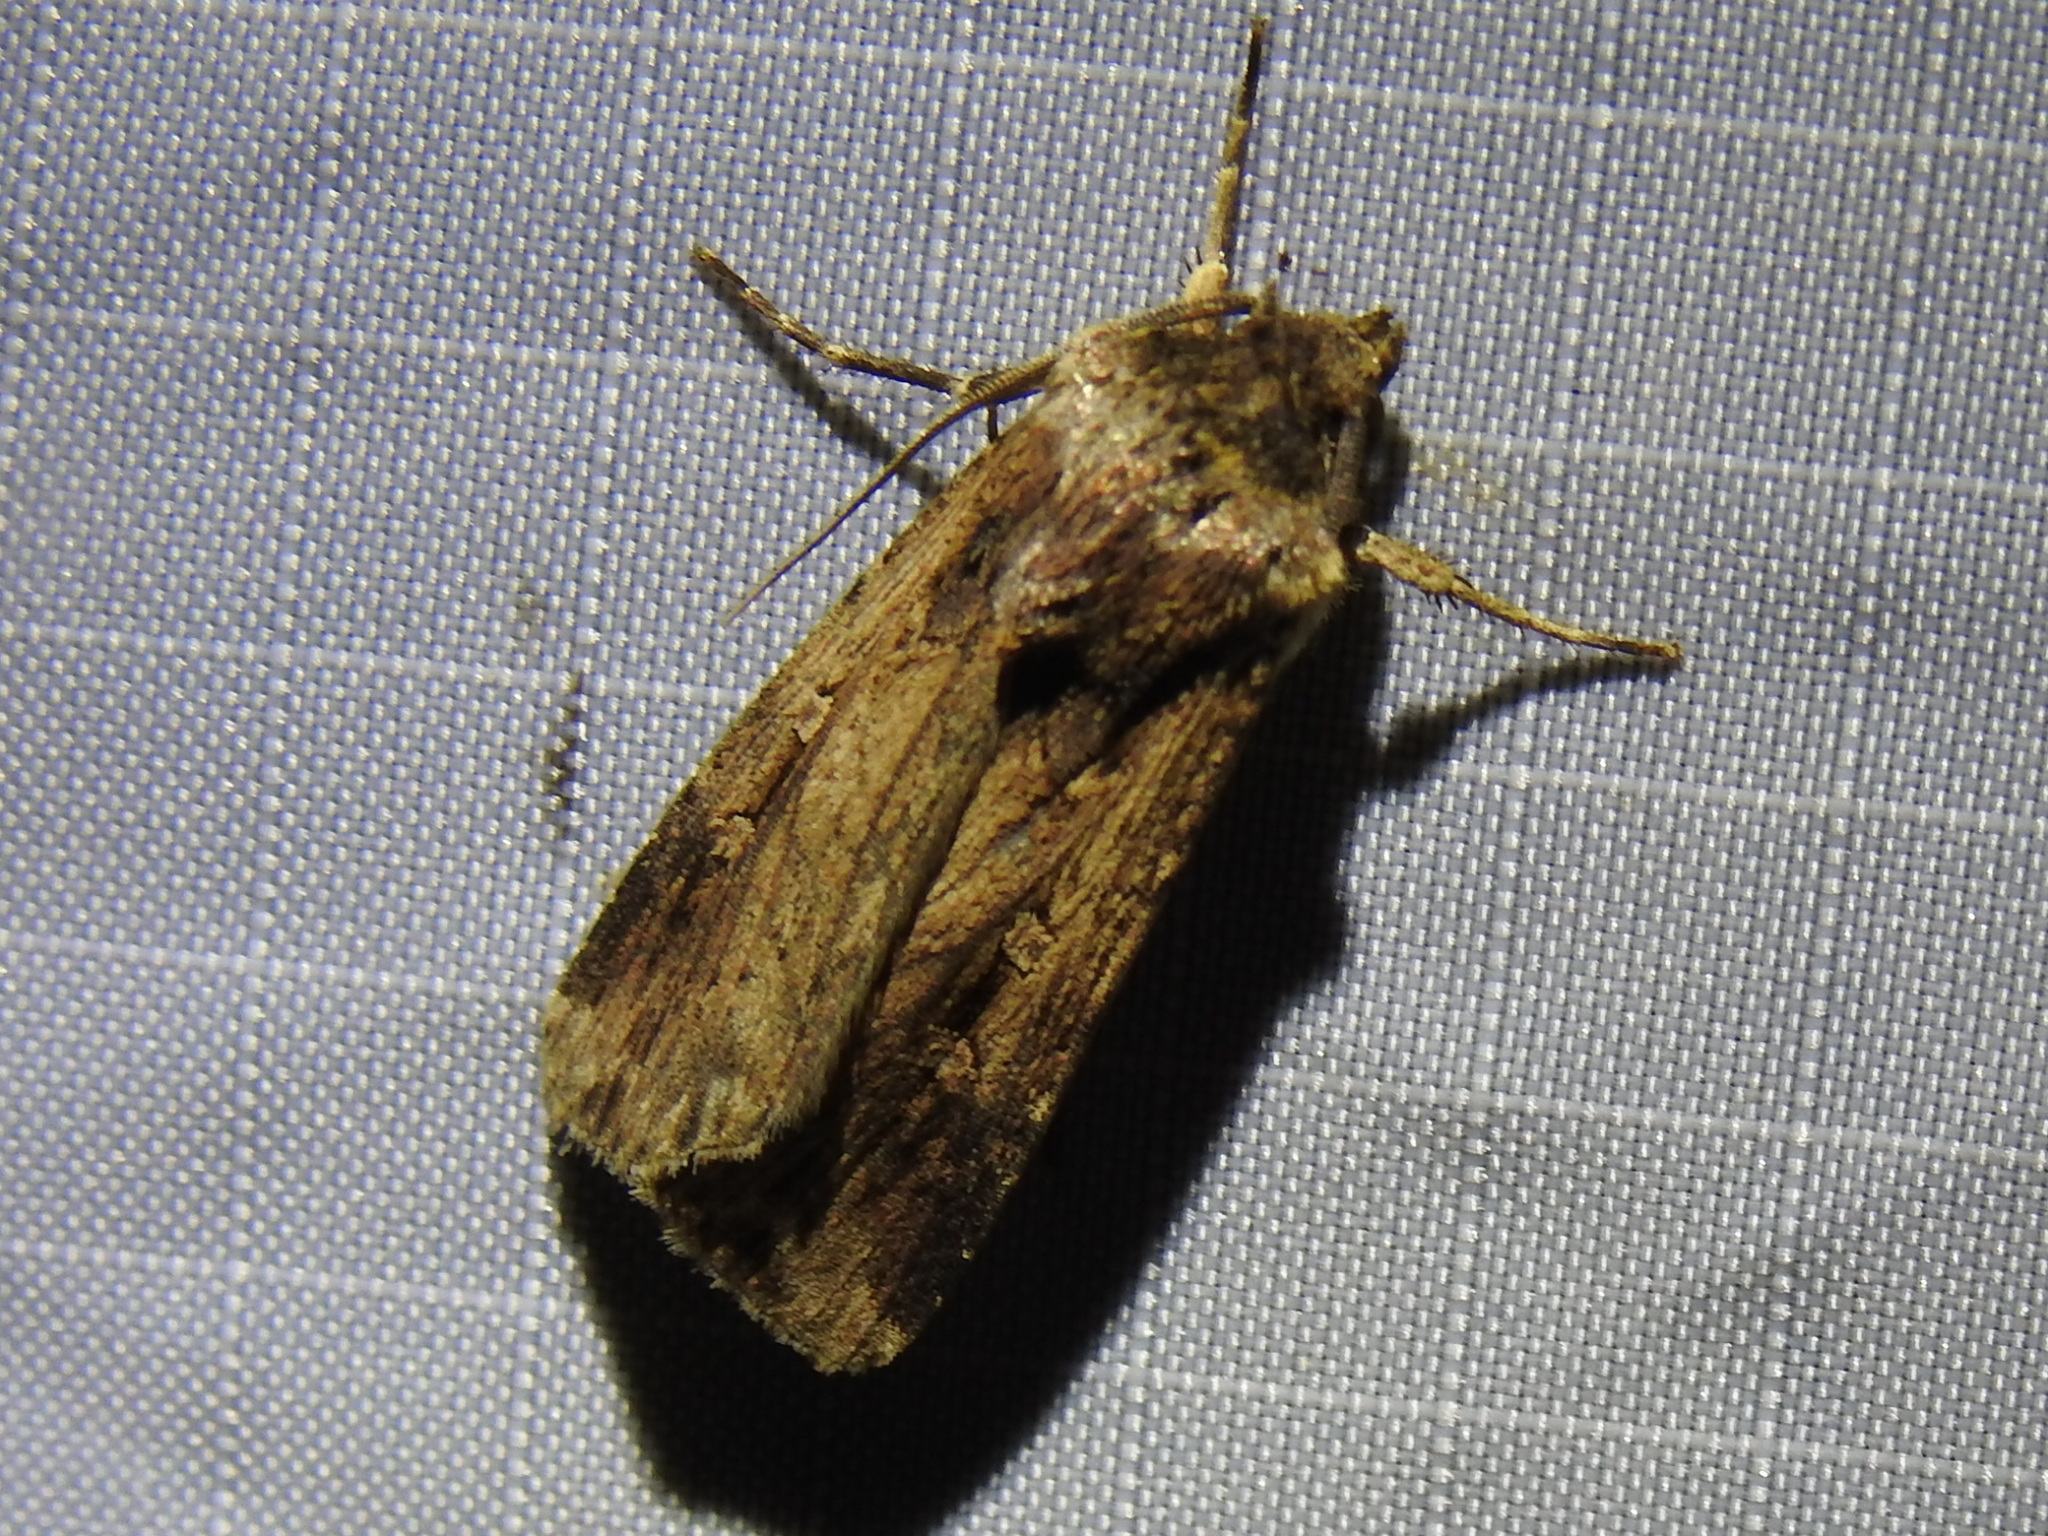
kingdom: Animalia
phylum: Arthropoda
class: Insecta
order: Lepidoptera
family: Noctuidae
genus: Feltia
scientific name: Feltia subterranea
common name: Granulate cutworm
